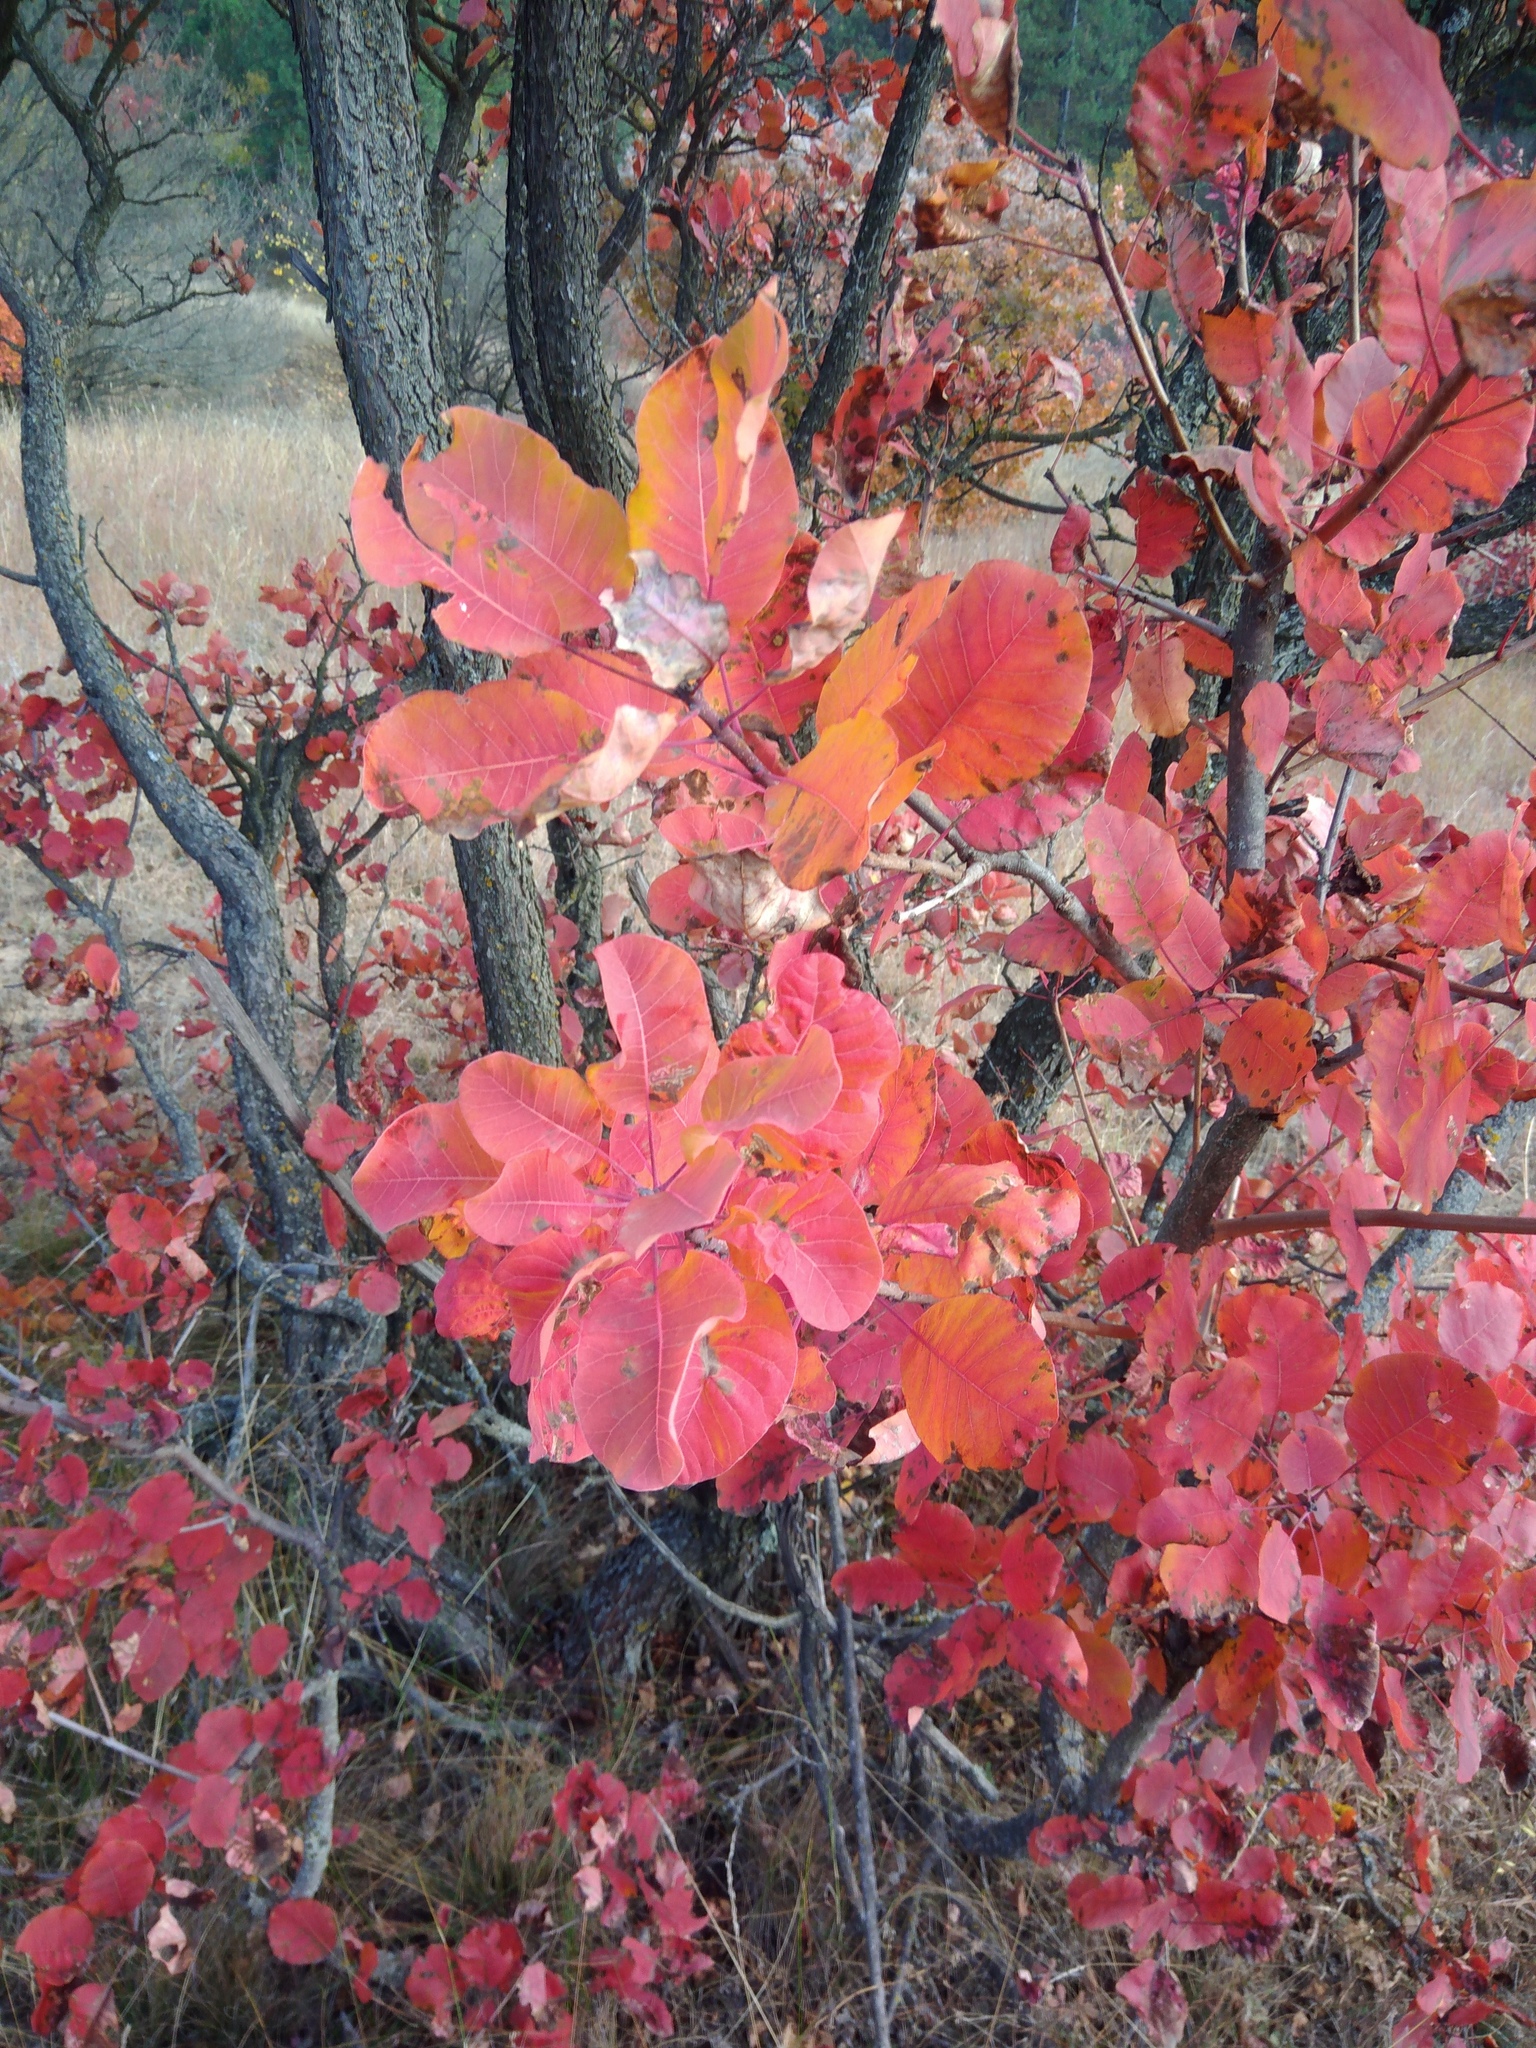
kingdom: Plantae
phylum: Tracheophyta
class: Magnoliopsida
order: Sapindales
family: Anacardiaceae
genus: Cotinus
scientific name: Cotinus coggygria
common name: Smoke-tree
